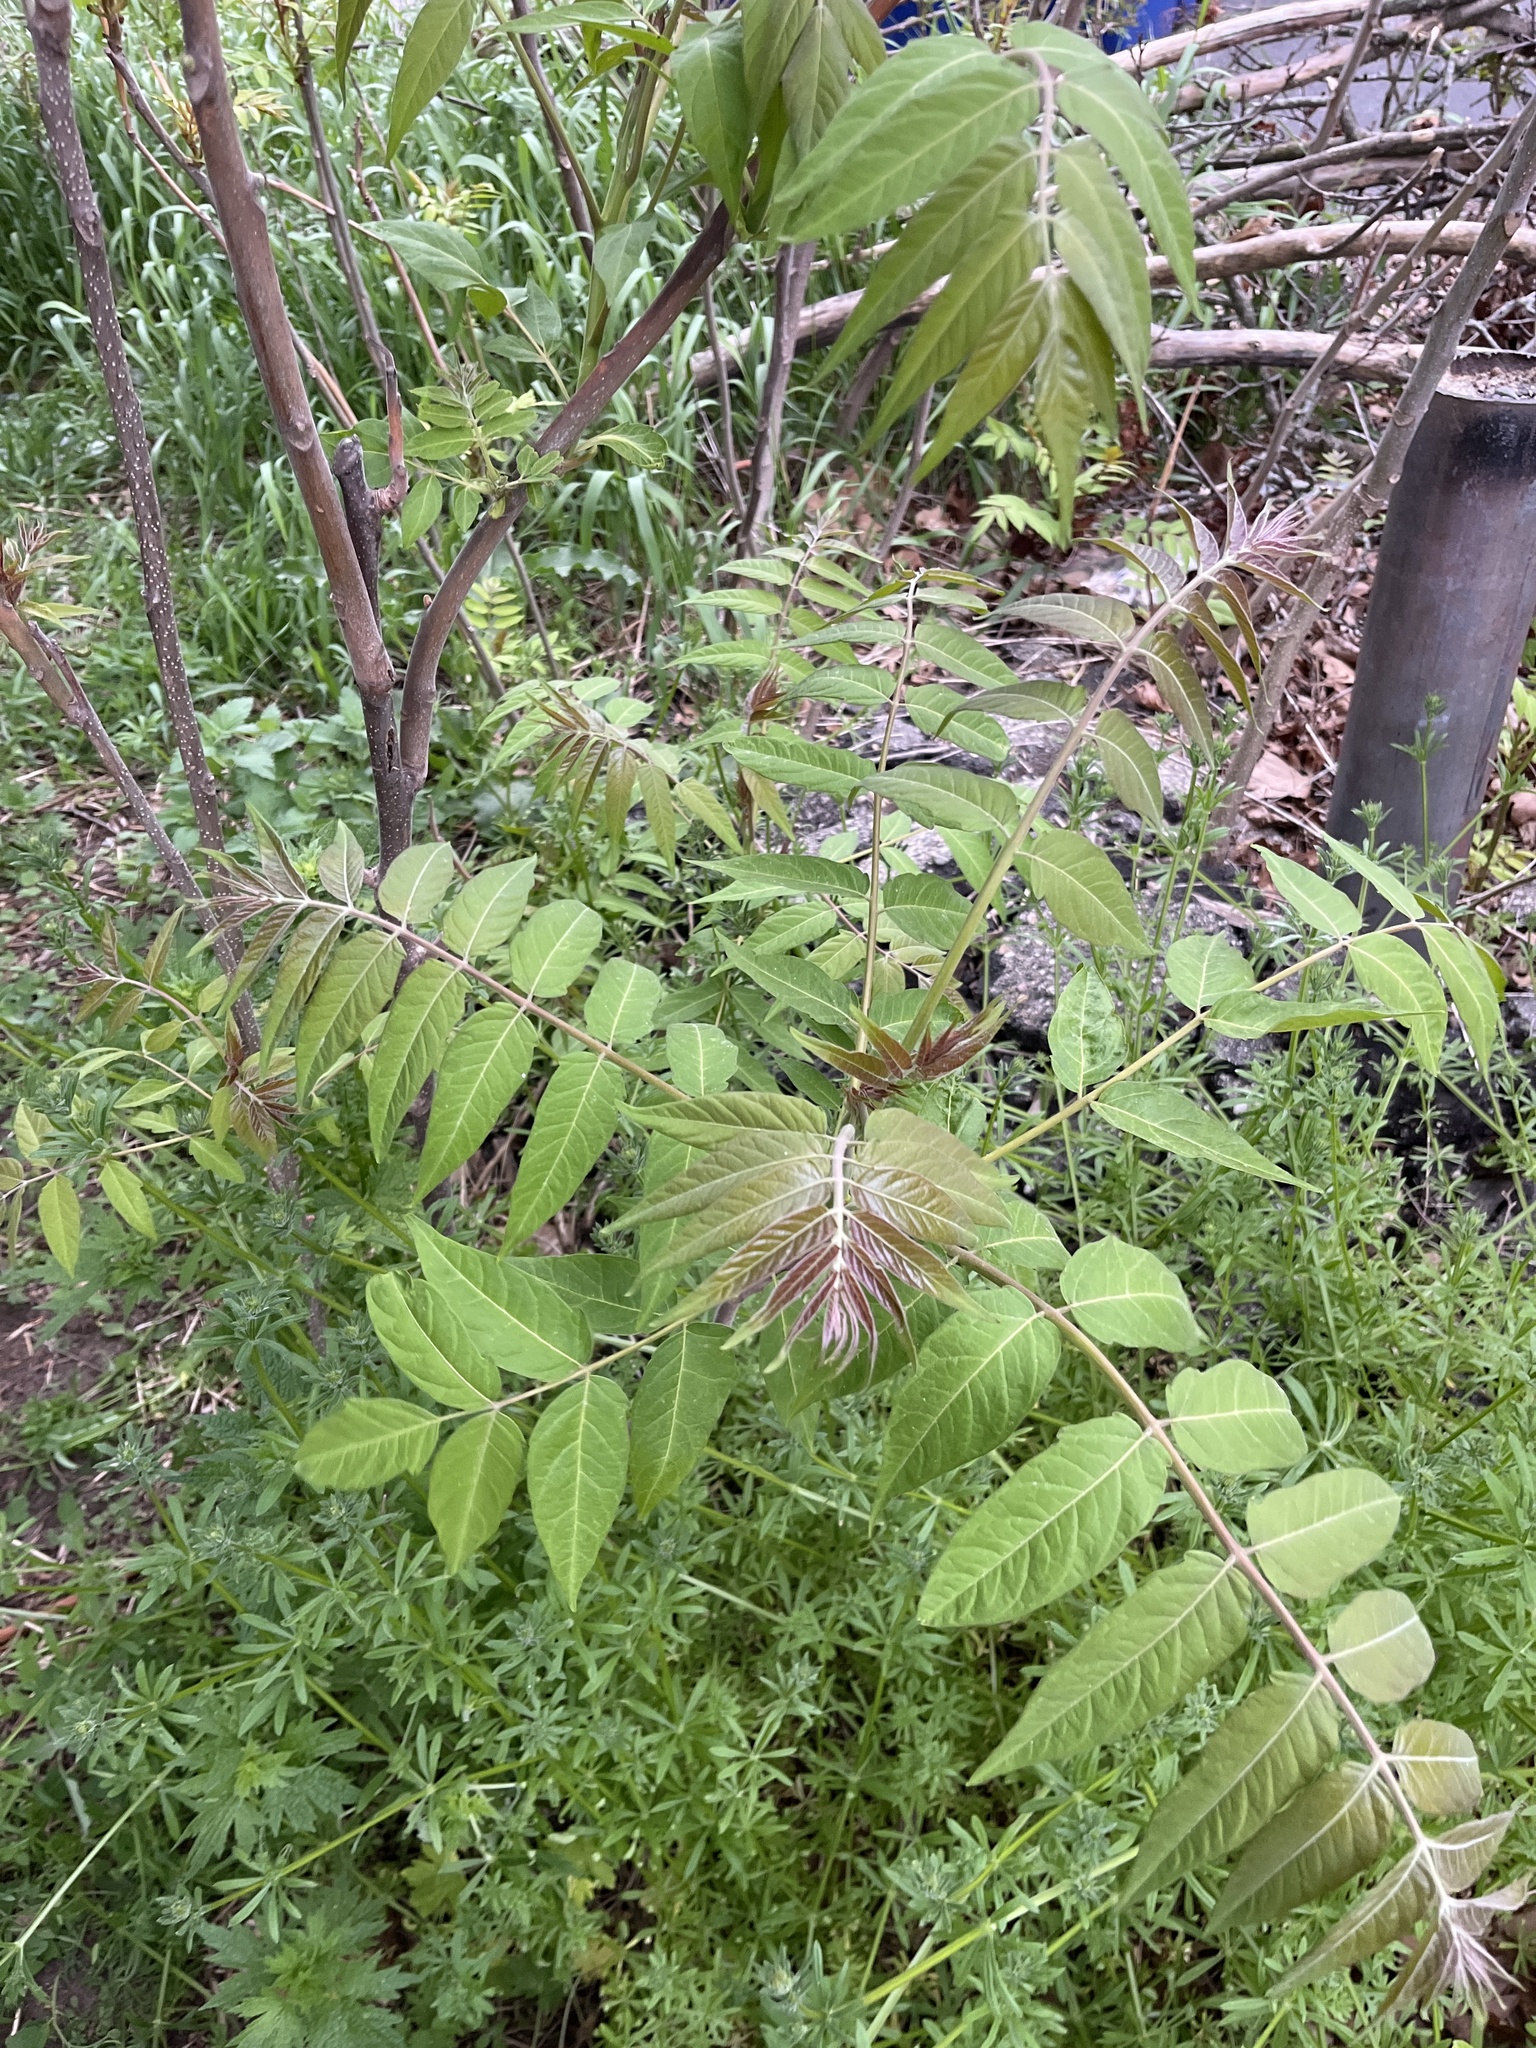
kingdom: Plantae
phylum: Tracheophyta
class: Magnoliopsida
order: Sapindales
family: Simaroubaceae
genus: Ailanthus
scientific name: Ailanthus altissima
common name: Tree-of-heaven
